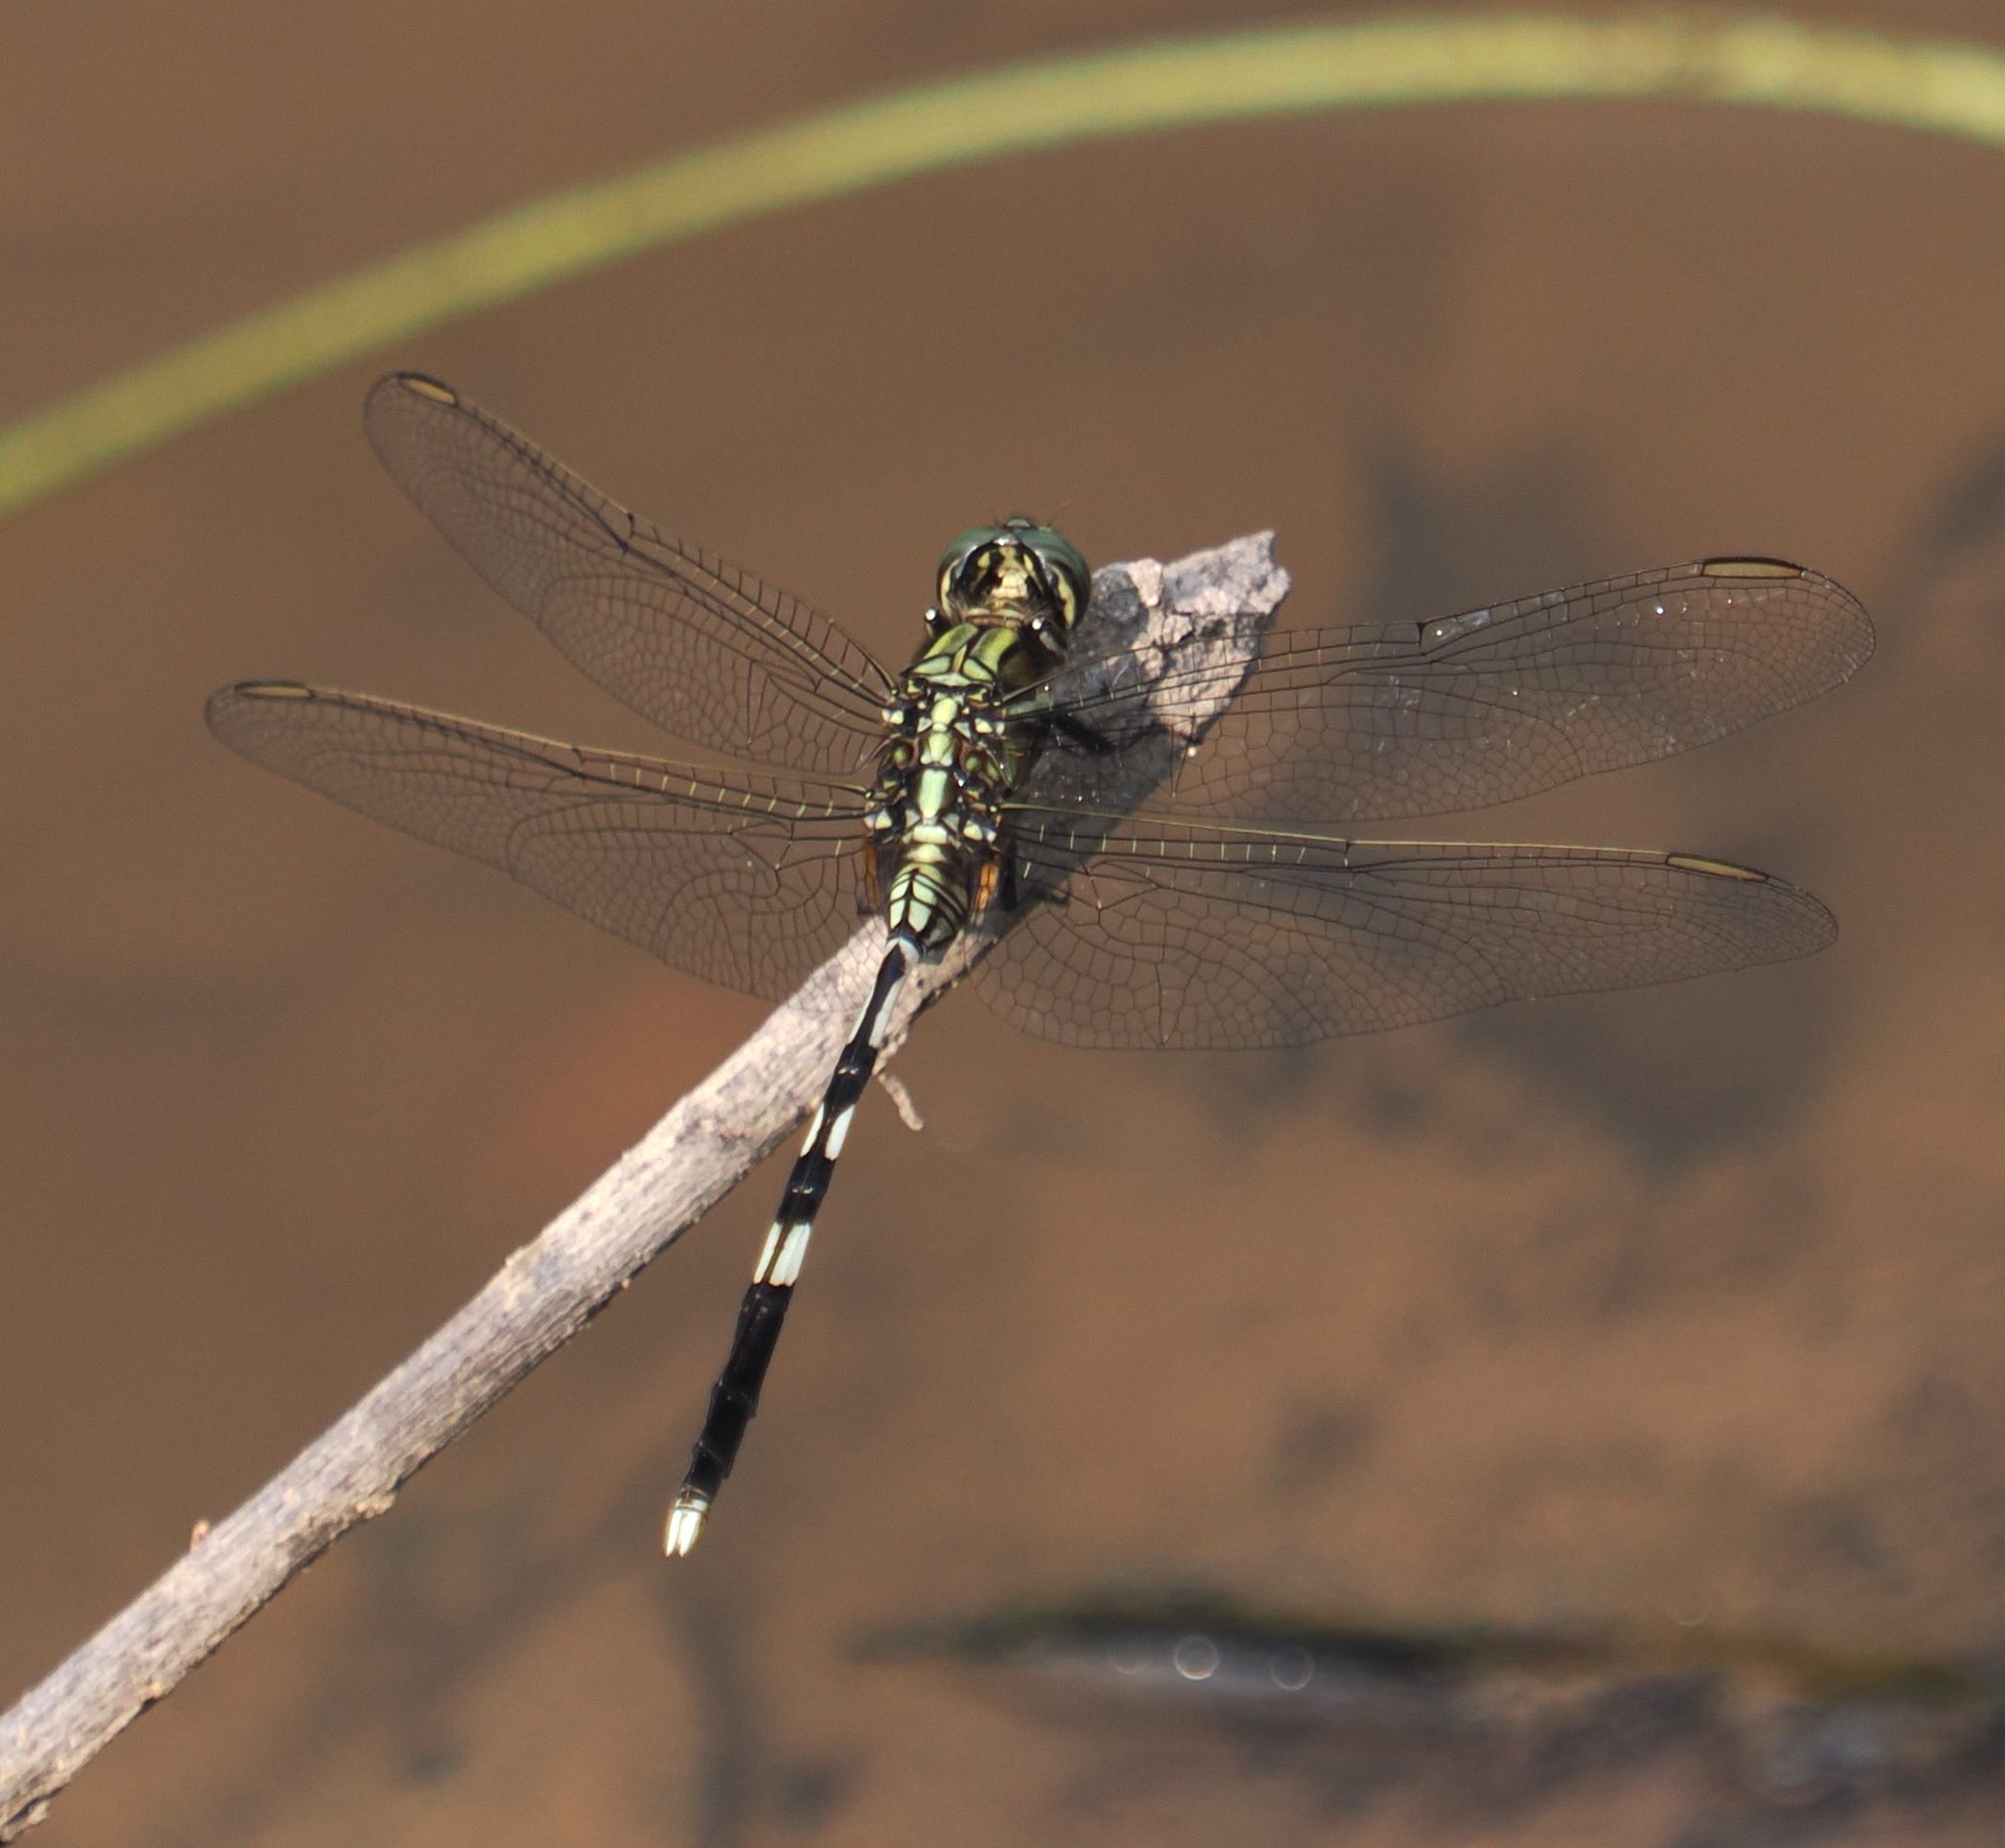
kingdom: Animalia
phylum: Arthropoda
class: Insecta
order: Odonata
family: Libellulidae
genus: Orthetrum
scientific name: Orthetrum sabina
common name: Slender skimmer
